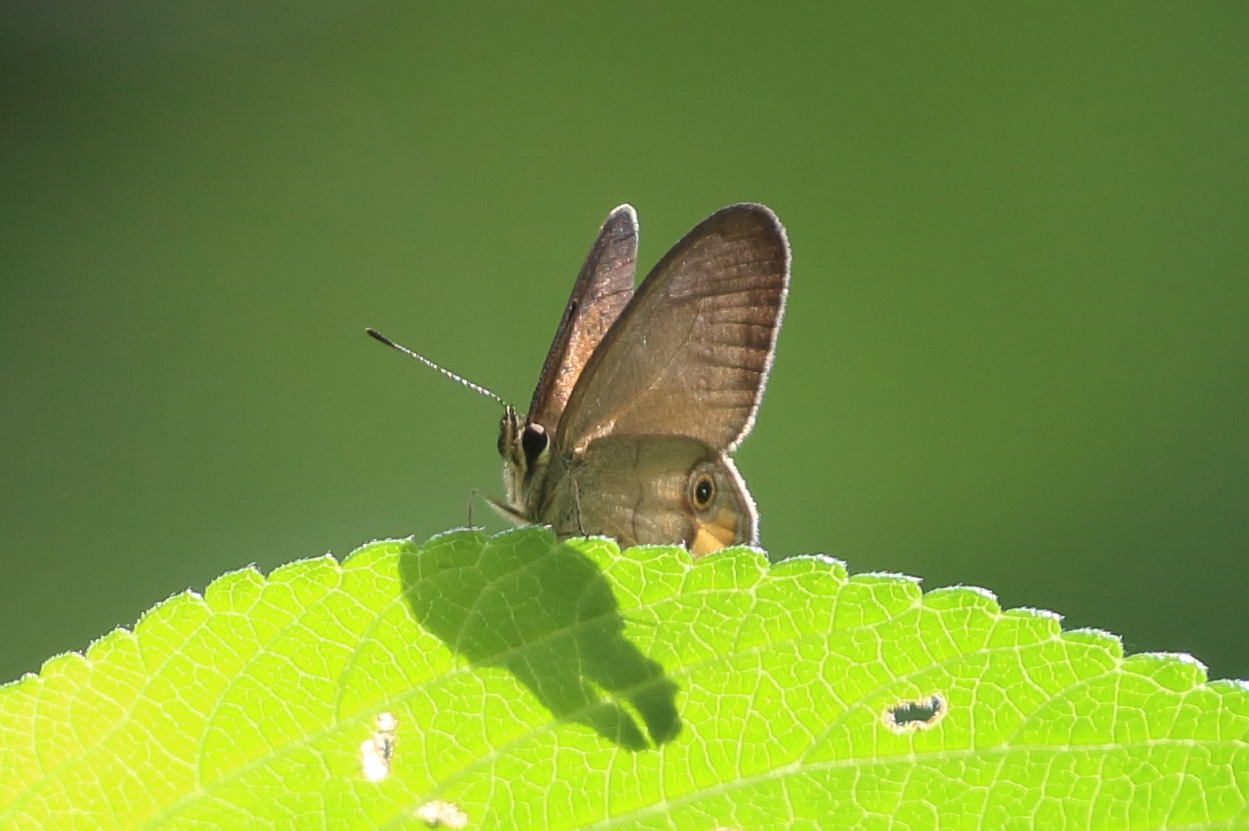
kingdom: Animalia
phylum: Arthropoda
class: Insecta
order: Lepidoptera
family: Nymphalidae
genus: Hypocysta
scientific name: Hypocysta metirius
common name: Brown ringlet
